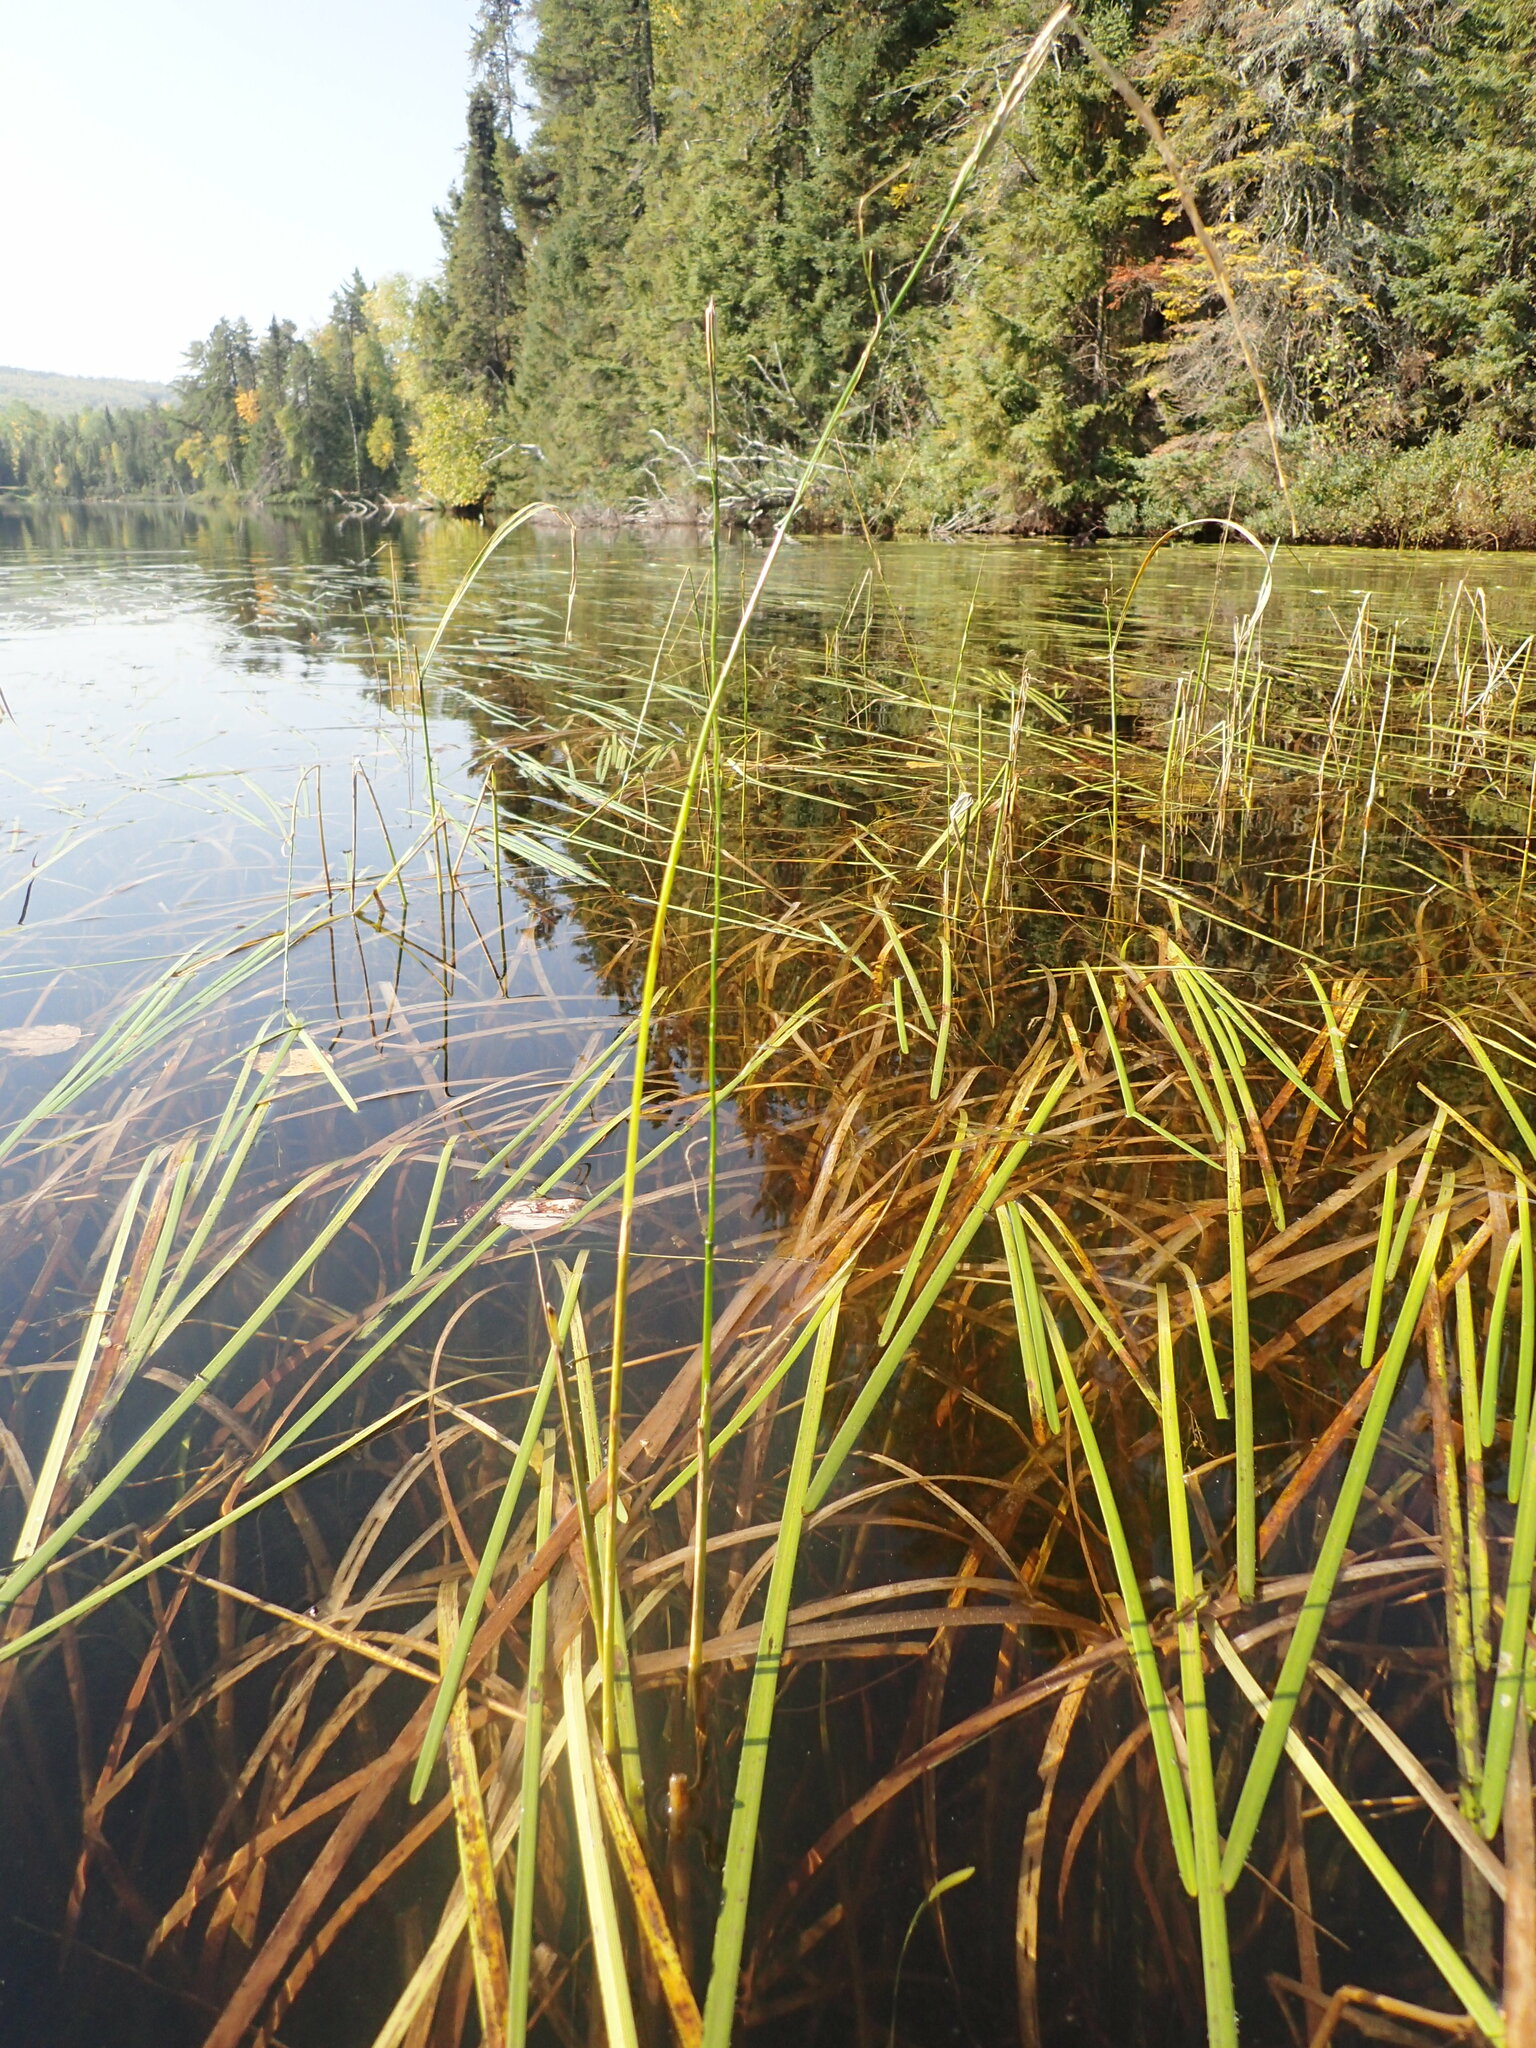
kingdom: Plantae
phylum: Tracheophyta
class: Liliopsida
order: Poales
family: Poaceae
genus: Zizania
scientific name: Zizania palustris
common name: Northern wild rice
